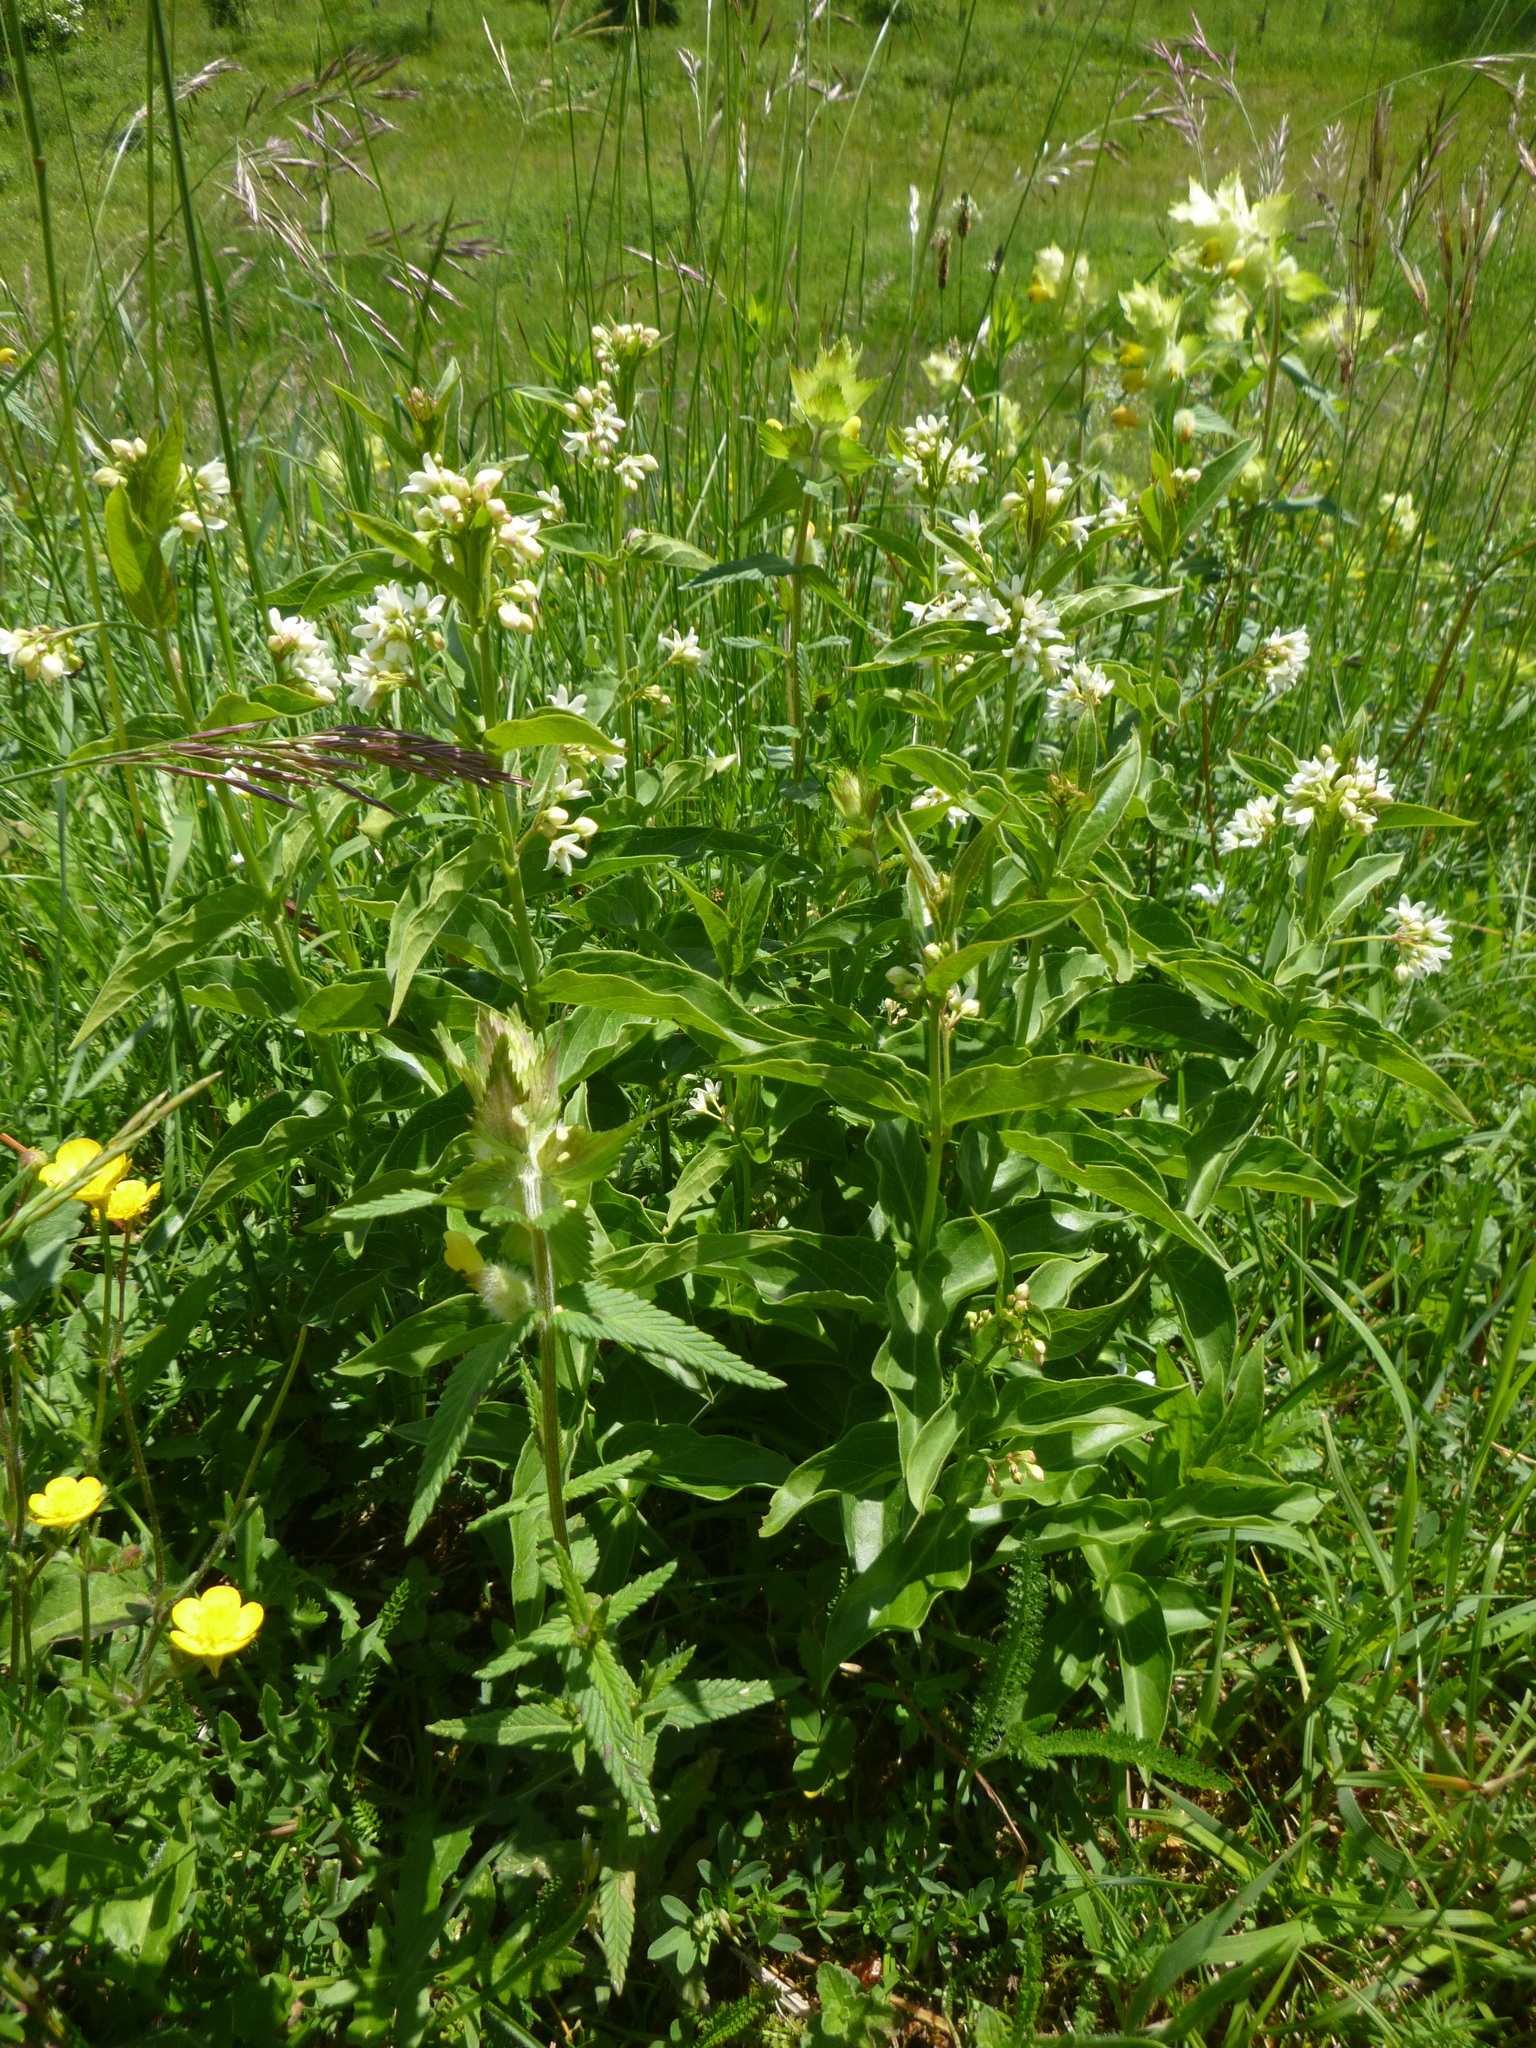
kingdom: Plantae
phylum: Tracheophyta
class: Magnoliopsida
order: Gentianales
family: Apocynaceae
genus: Vincetoxicum
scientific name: Vincetoxicum hirundinaria
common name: White swallowwort
